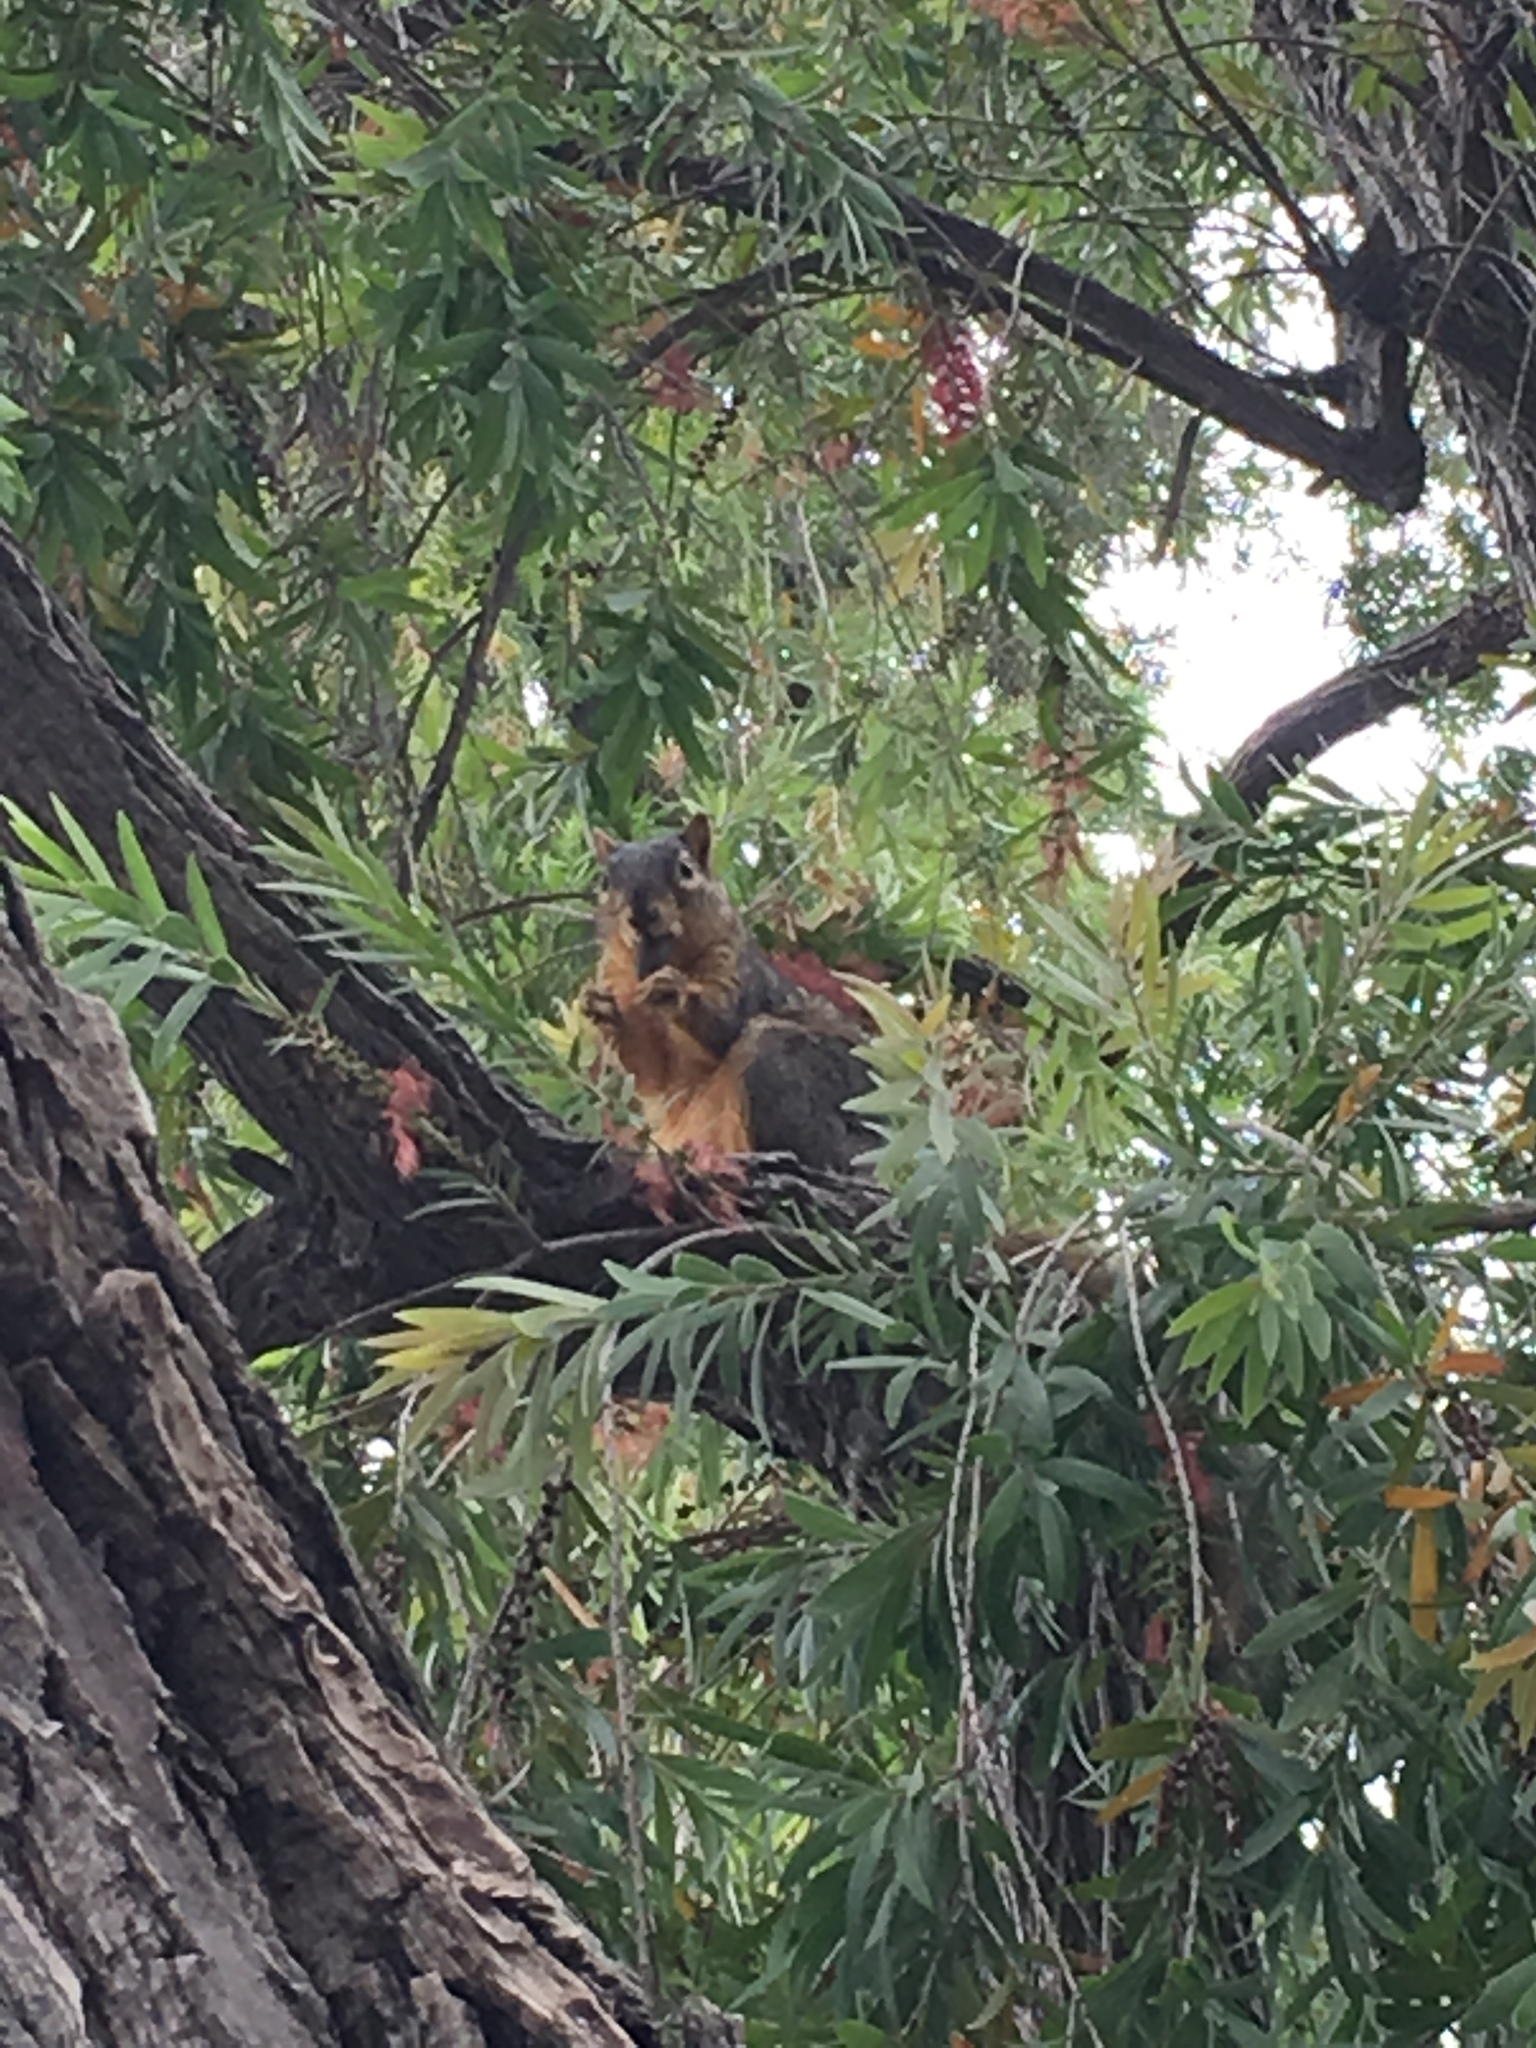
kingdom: Animalia
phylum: Chordata
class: Mammalia
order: Rodentia
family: Sciuridae
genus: Sciurus
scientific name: Sciurus niger
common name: Fox squirrel
